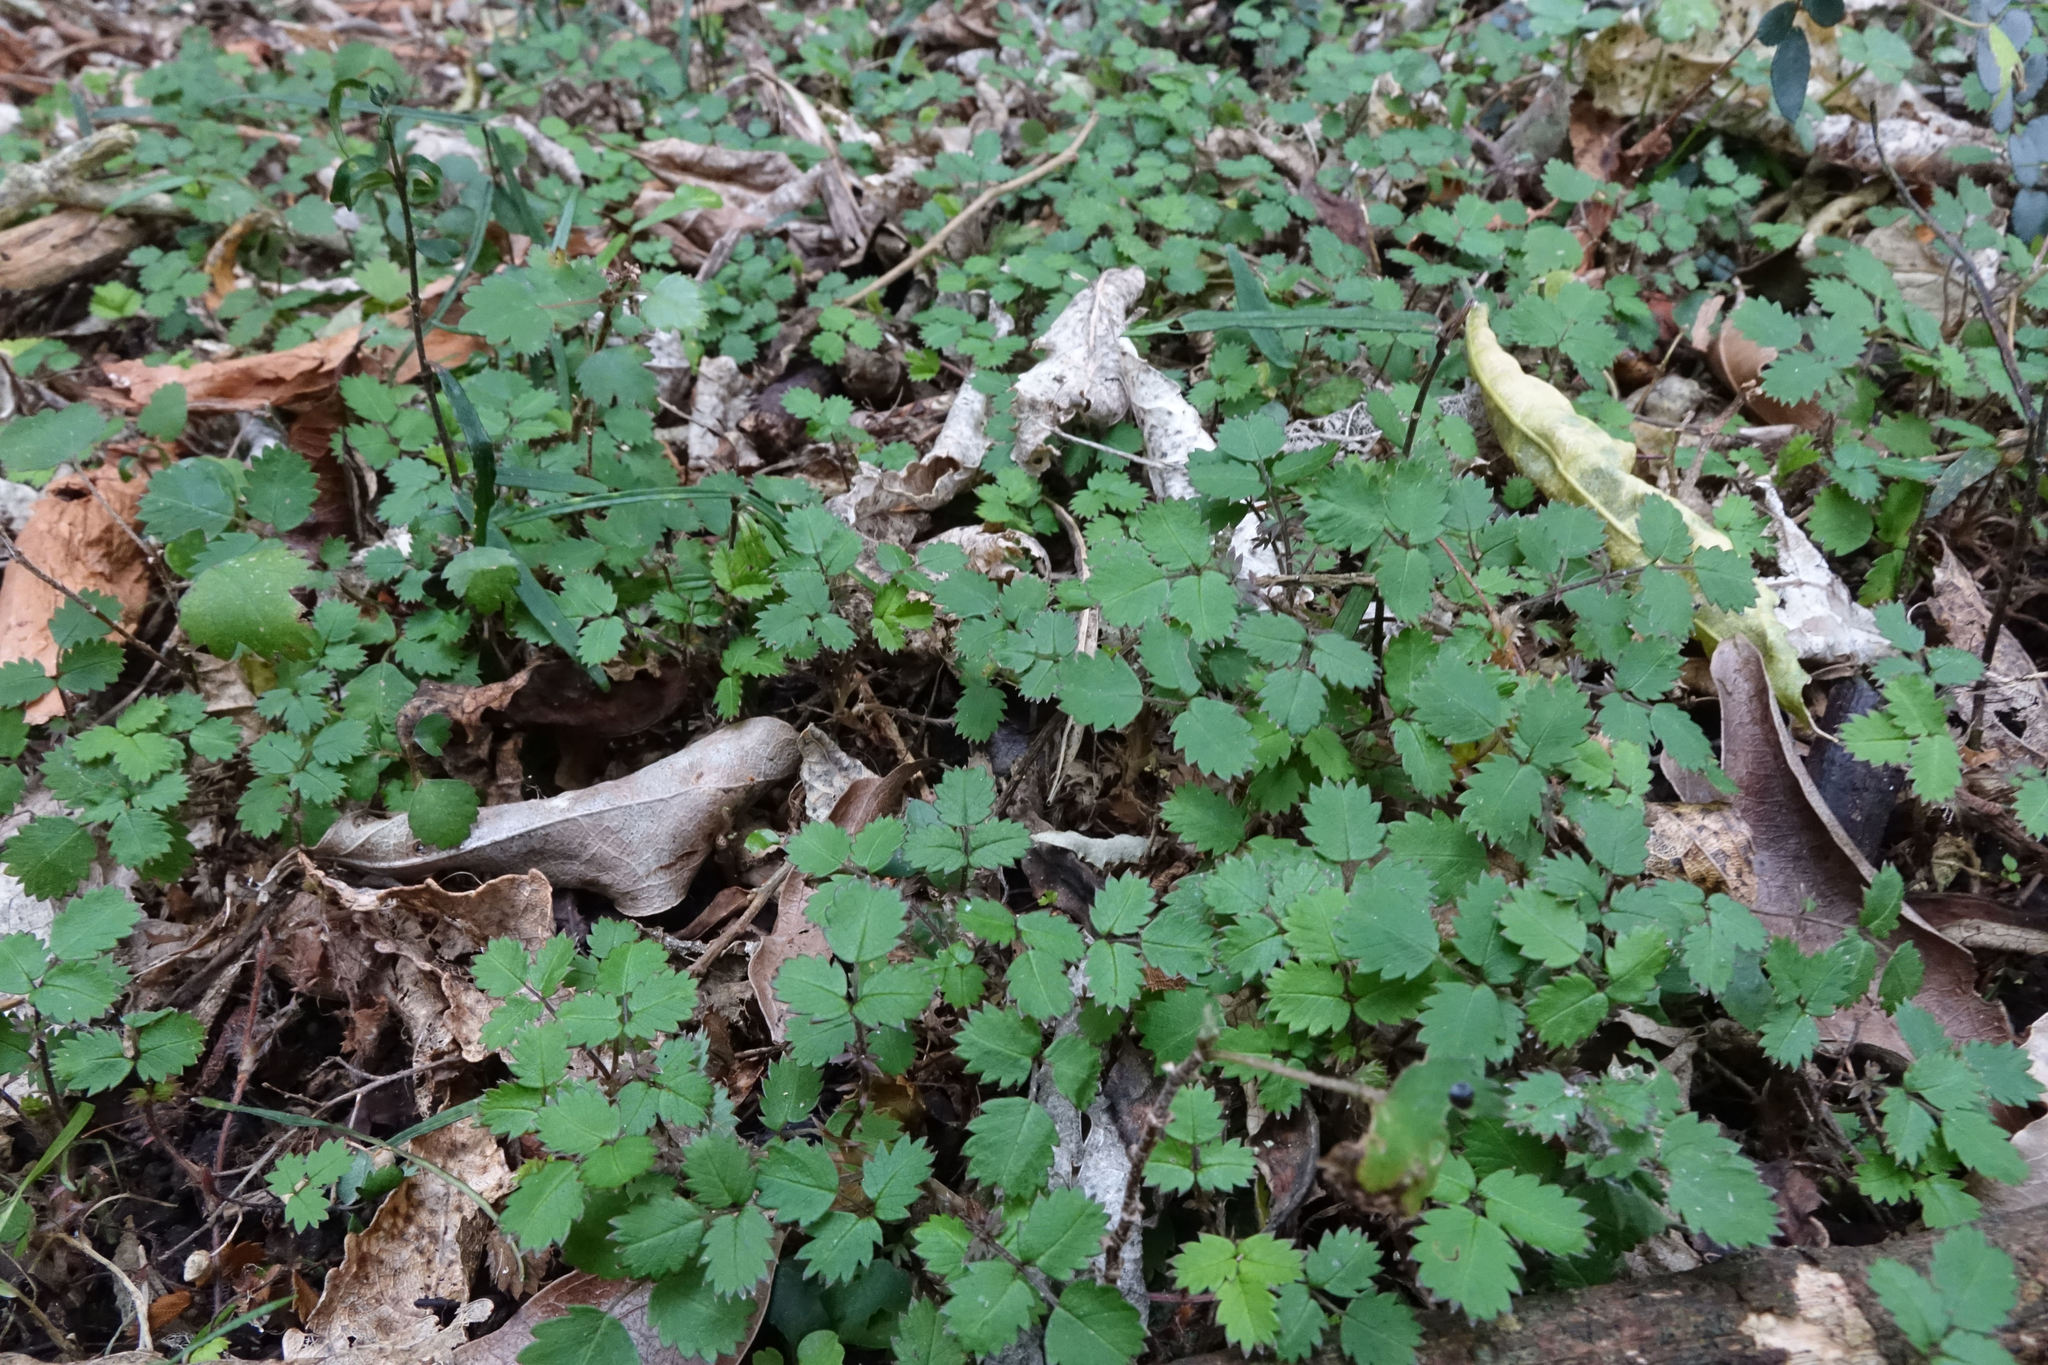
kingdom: Plantae
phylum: Tracheophyta
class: Magnoliopsida
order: Rosales
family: Rosaceae
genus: Acaena
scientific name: Acaena juvenca
